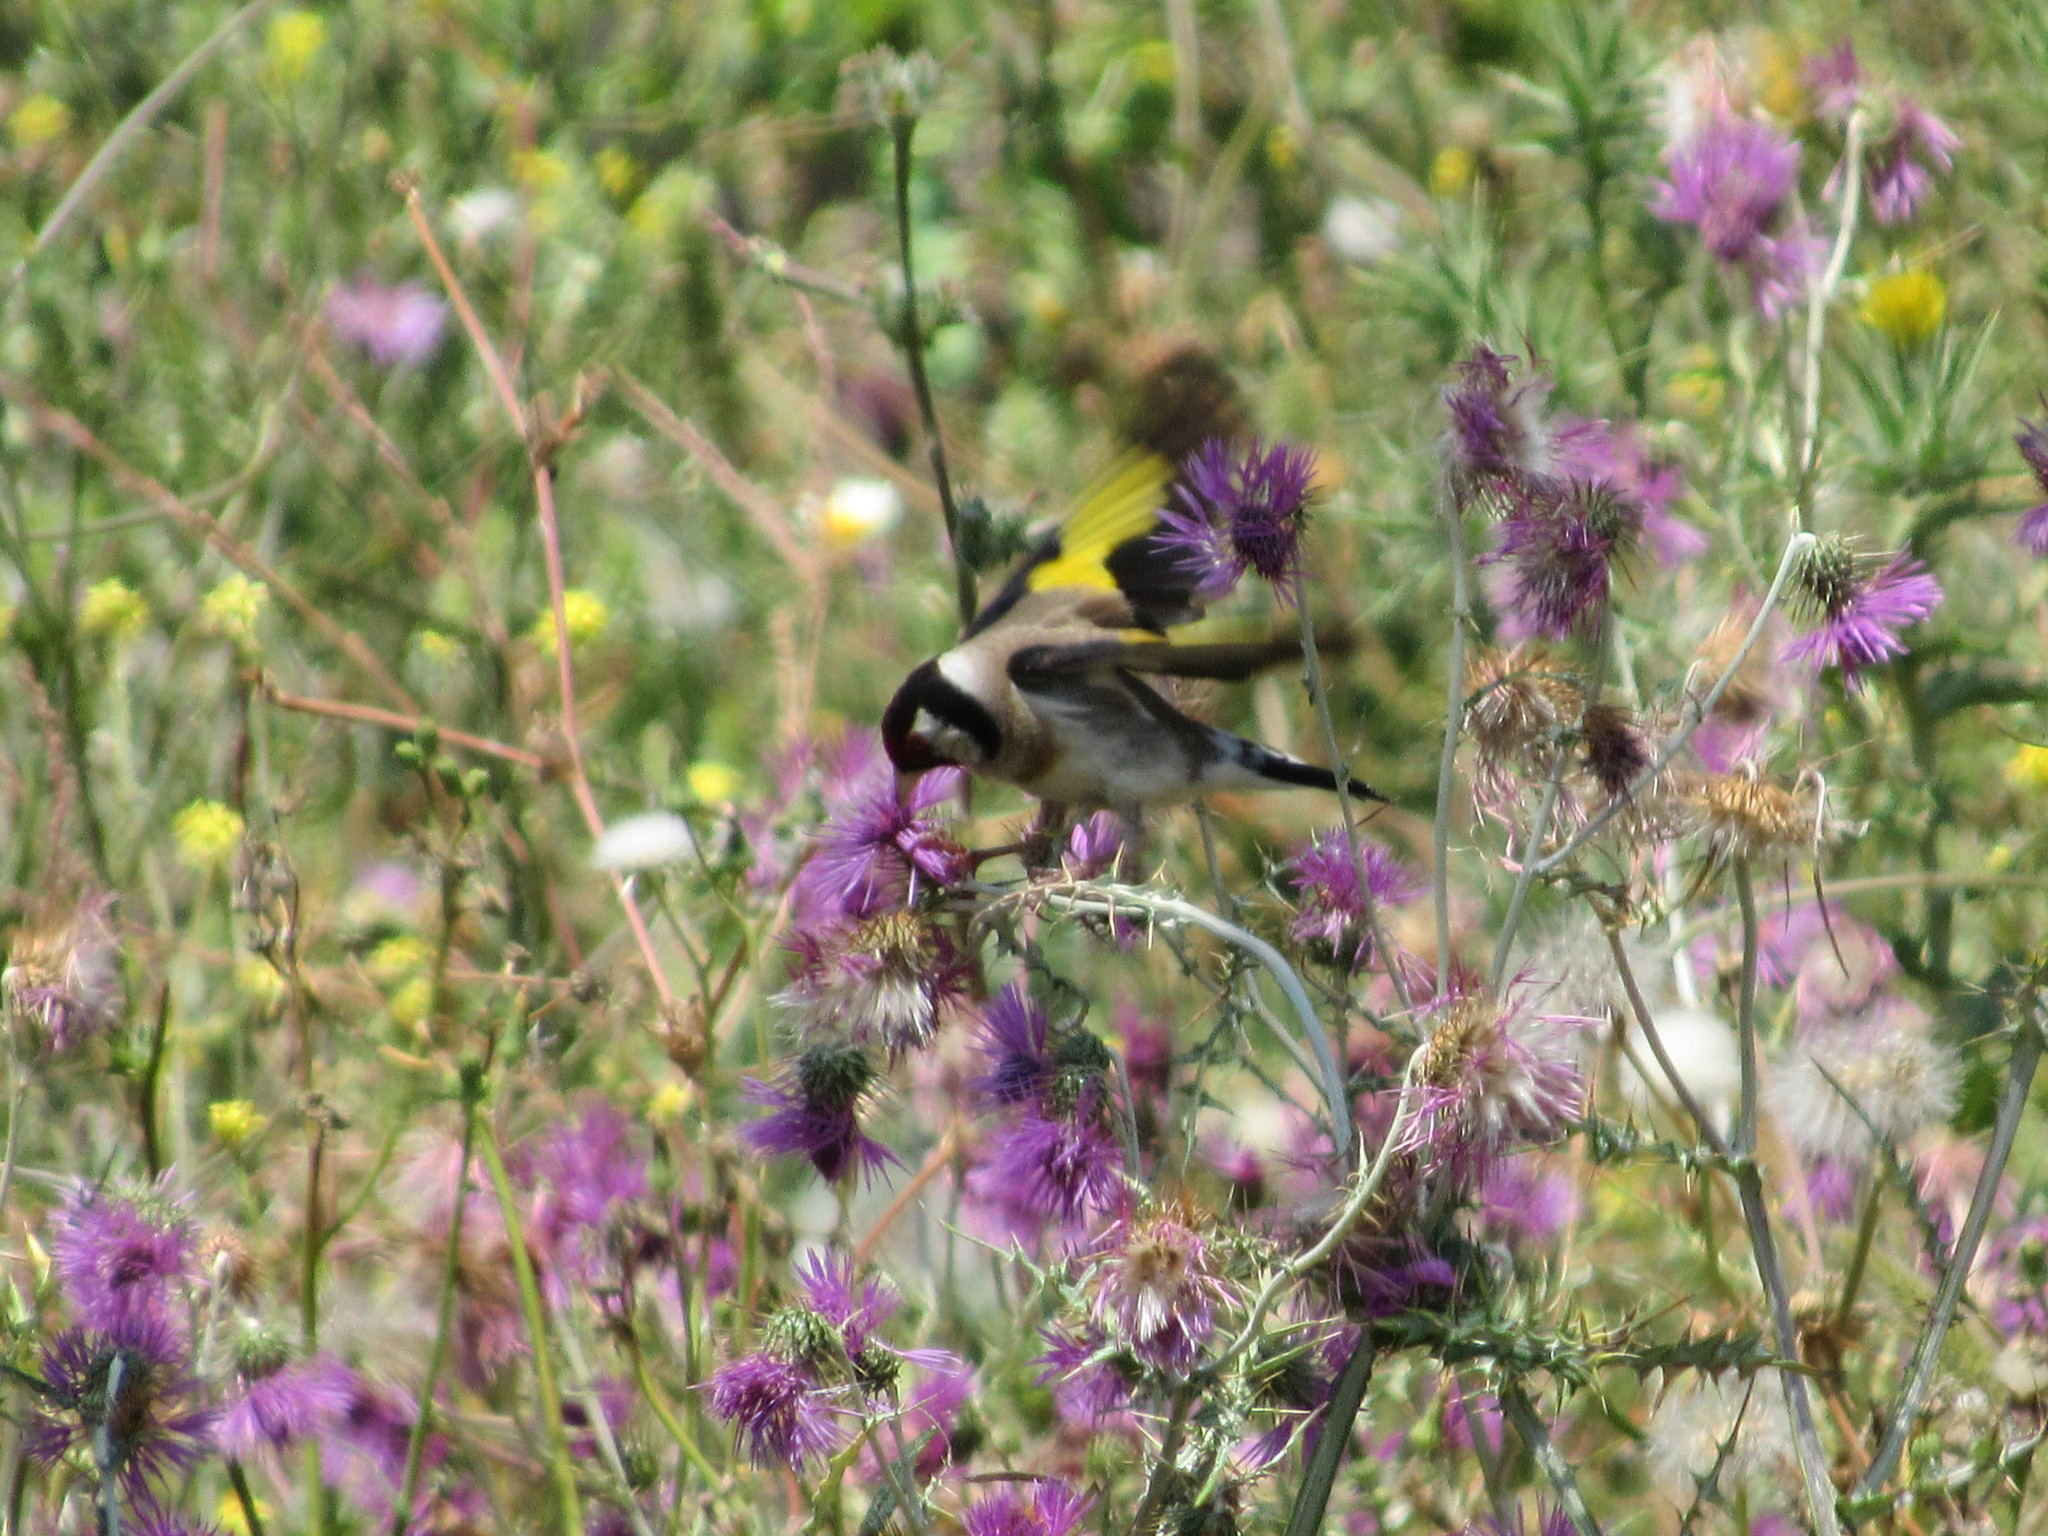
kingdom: Animalia
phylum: Chordata
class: Aves
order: Passeriformes
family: Fringillidae
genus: Carduelis
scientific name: Carduelis carduelis
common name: European goldfinch
